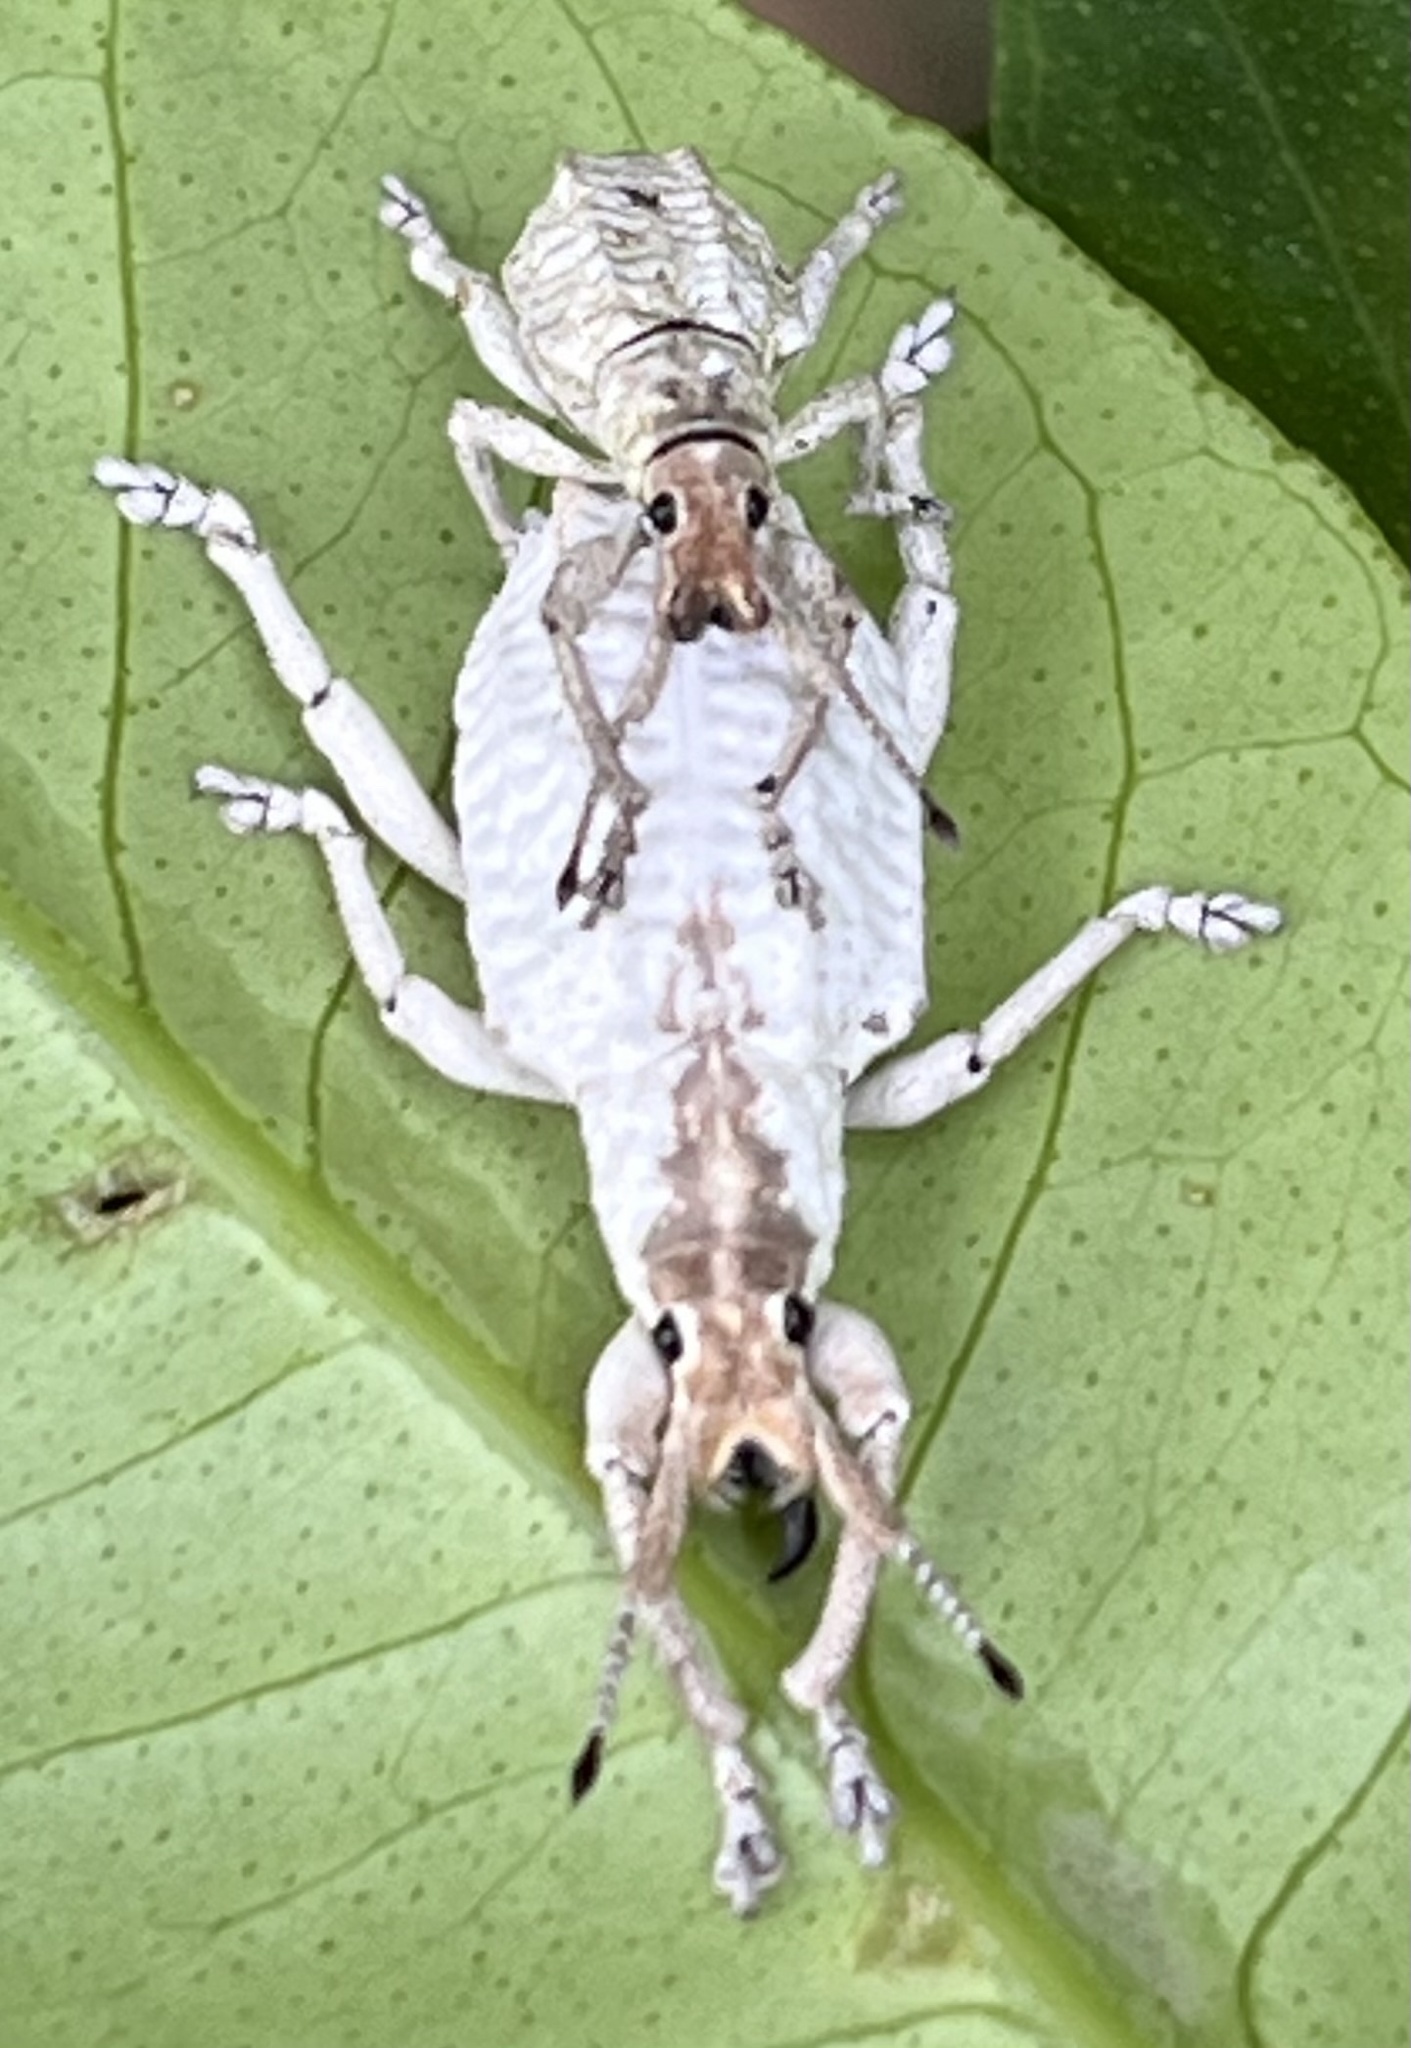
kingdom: Animalia
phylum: Arthropoda
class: Insecta
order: Coleoptera
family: Curculionidae
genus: Compsus
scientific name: Compsus niveus
